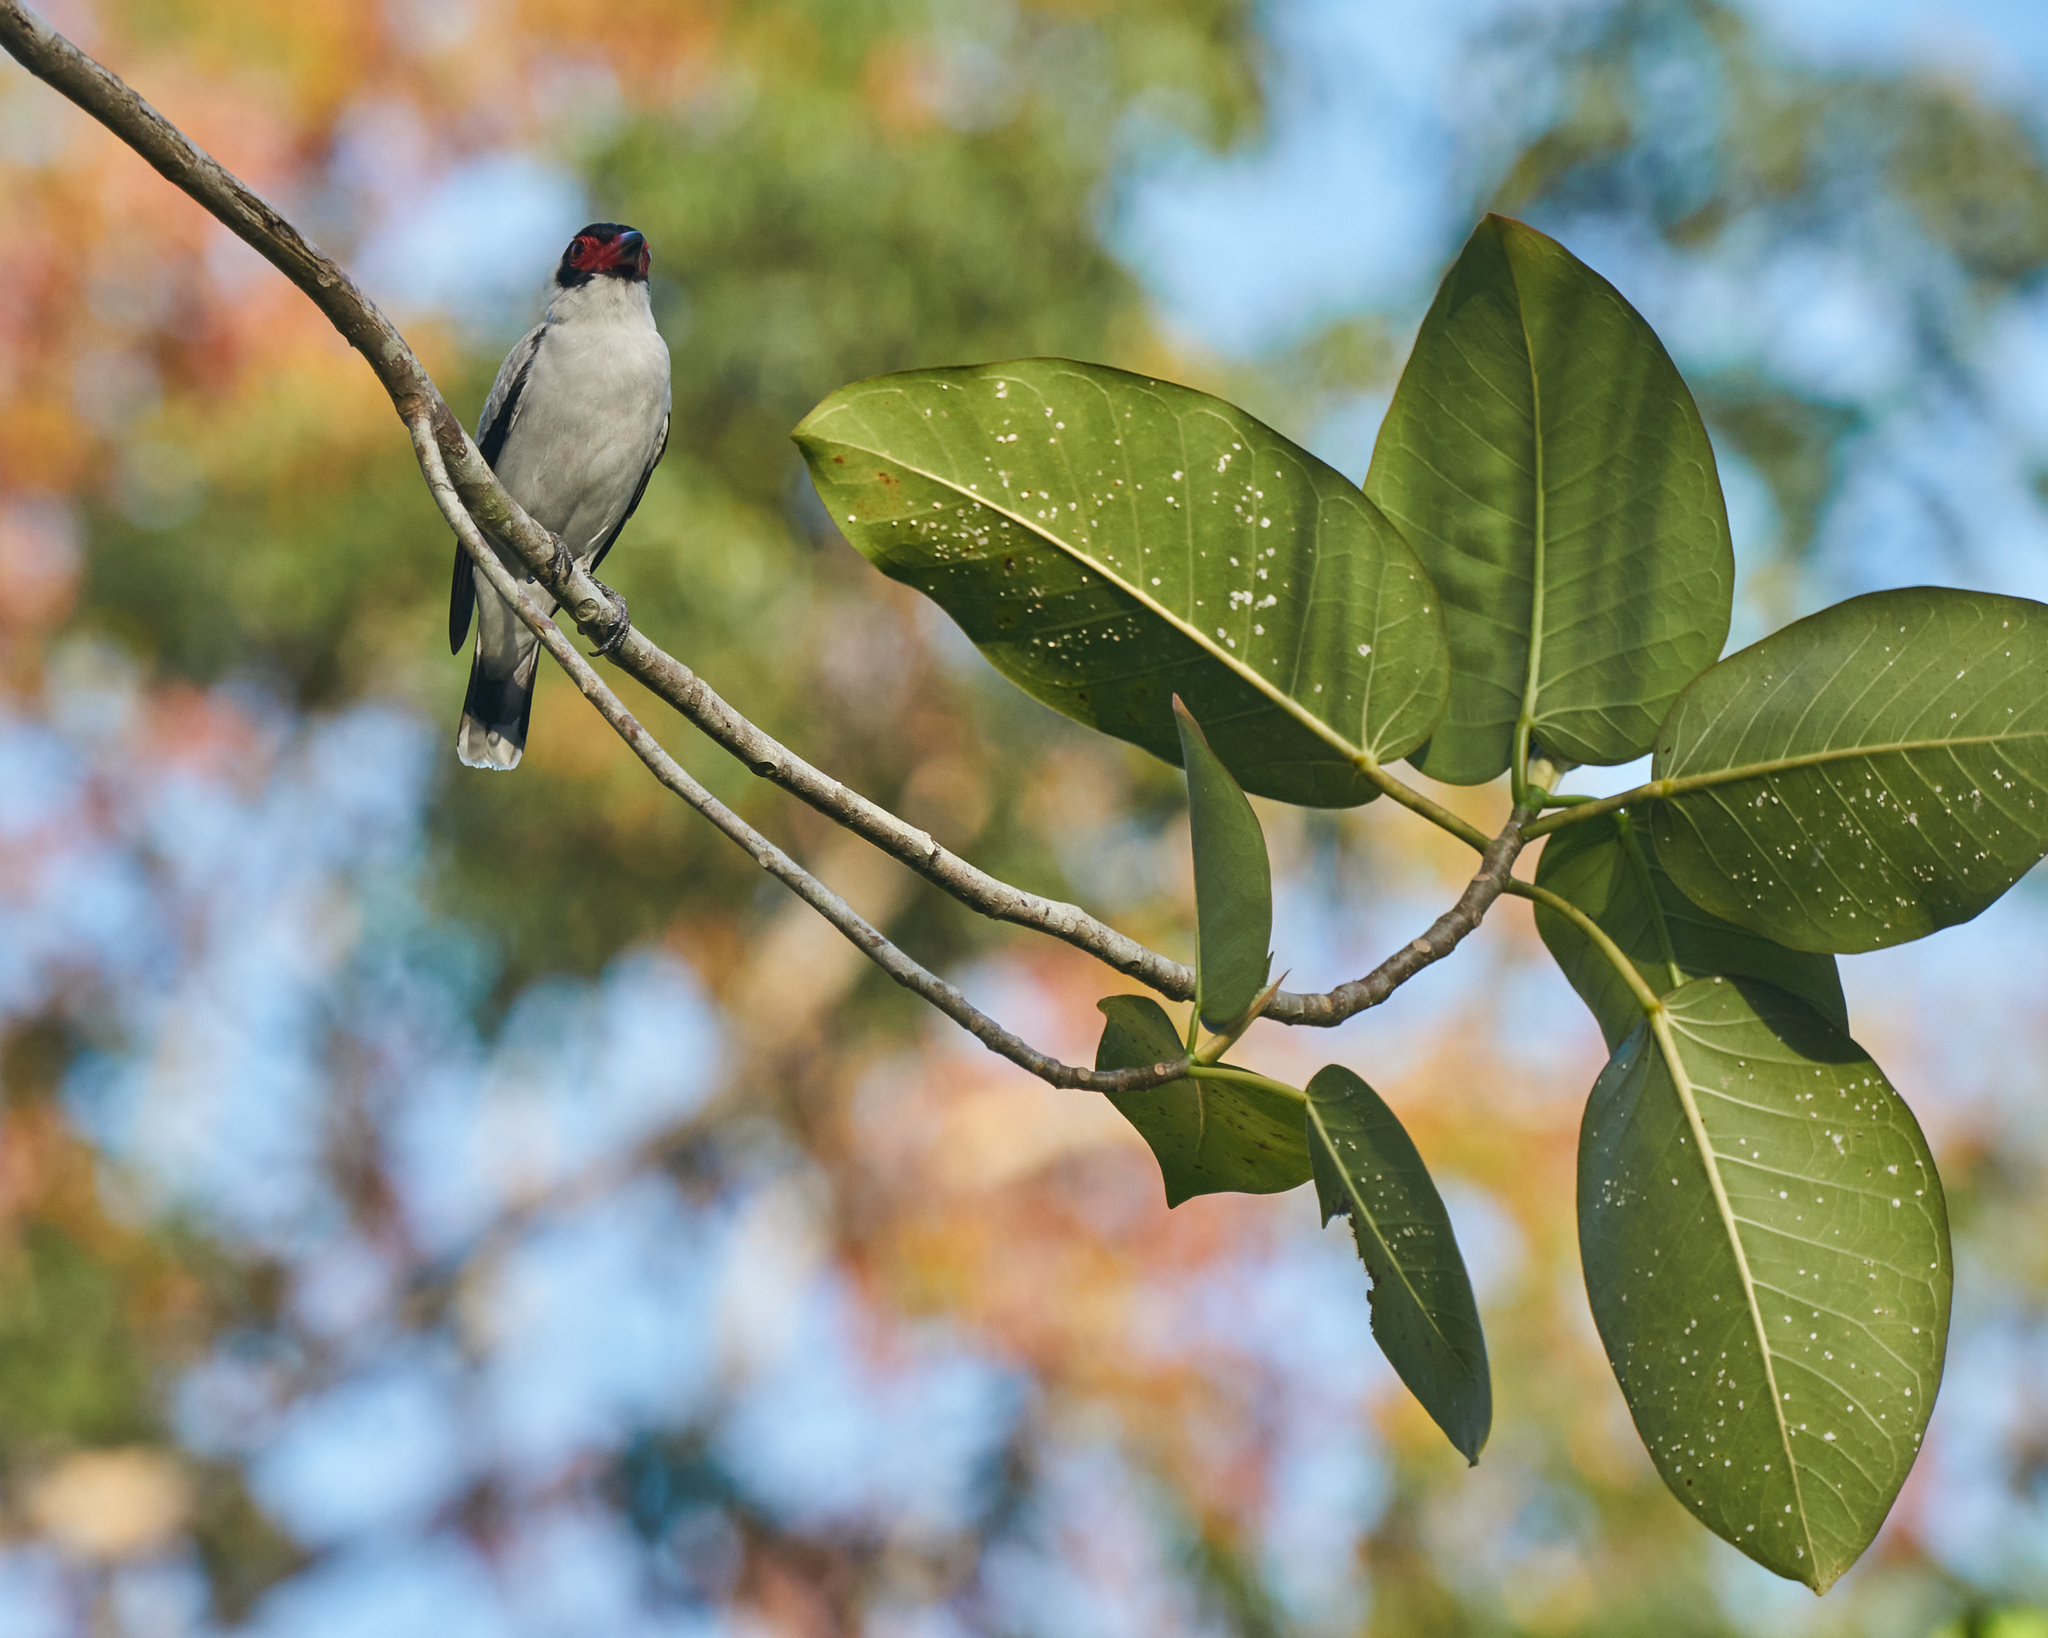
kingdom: Animalia
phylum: Chordata
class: Aves
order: Passeriformes
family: Cotingidae
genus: Tityra
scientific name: Tityra semifasciata
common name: Masked tityra
